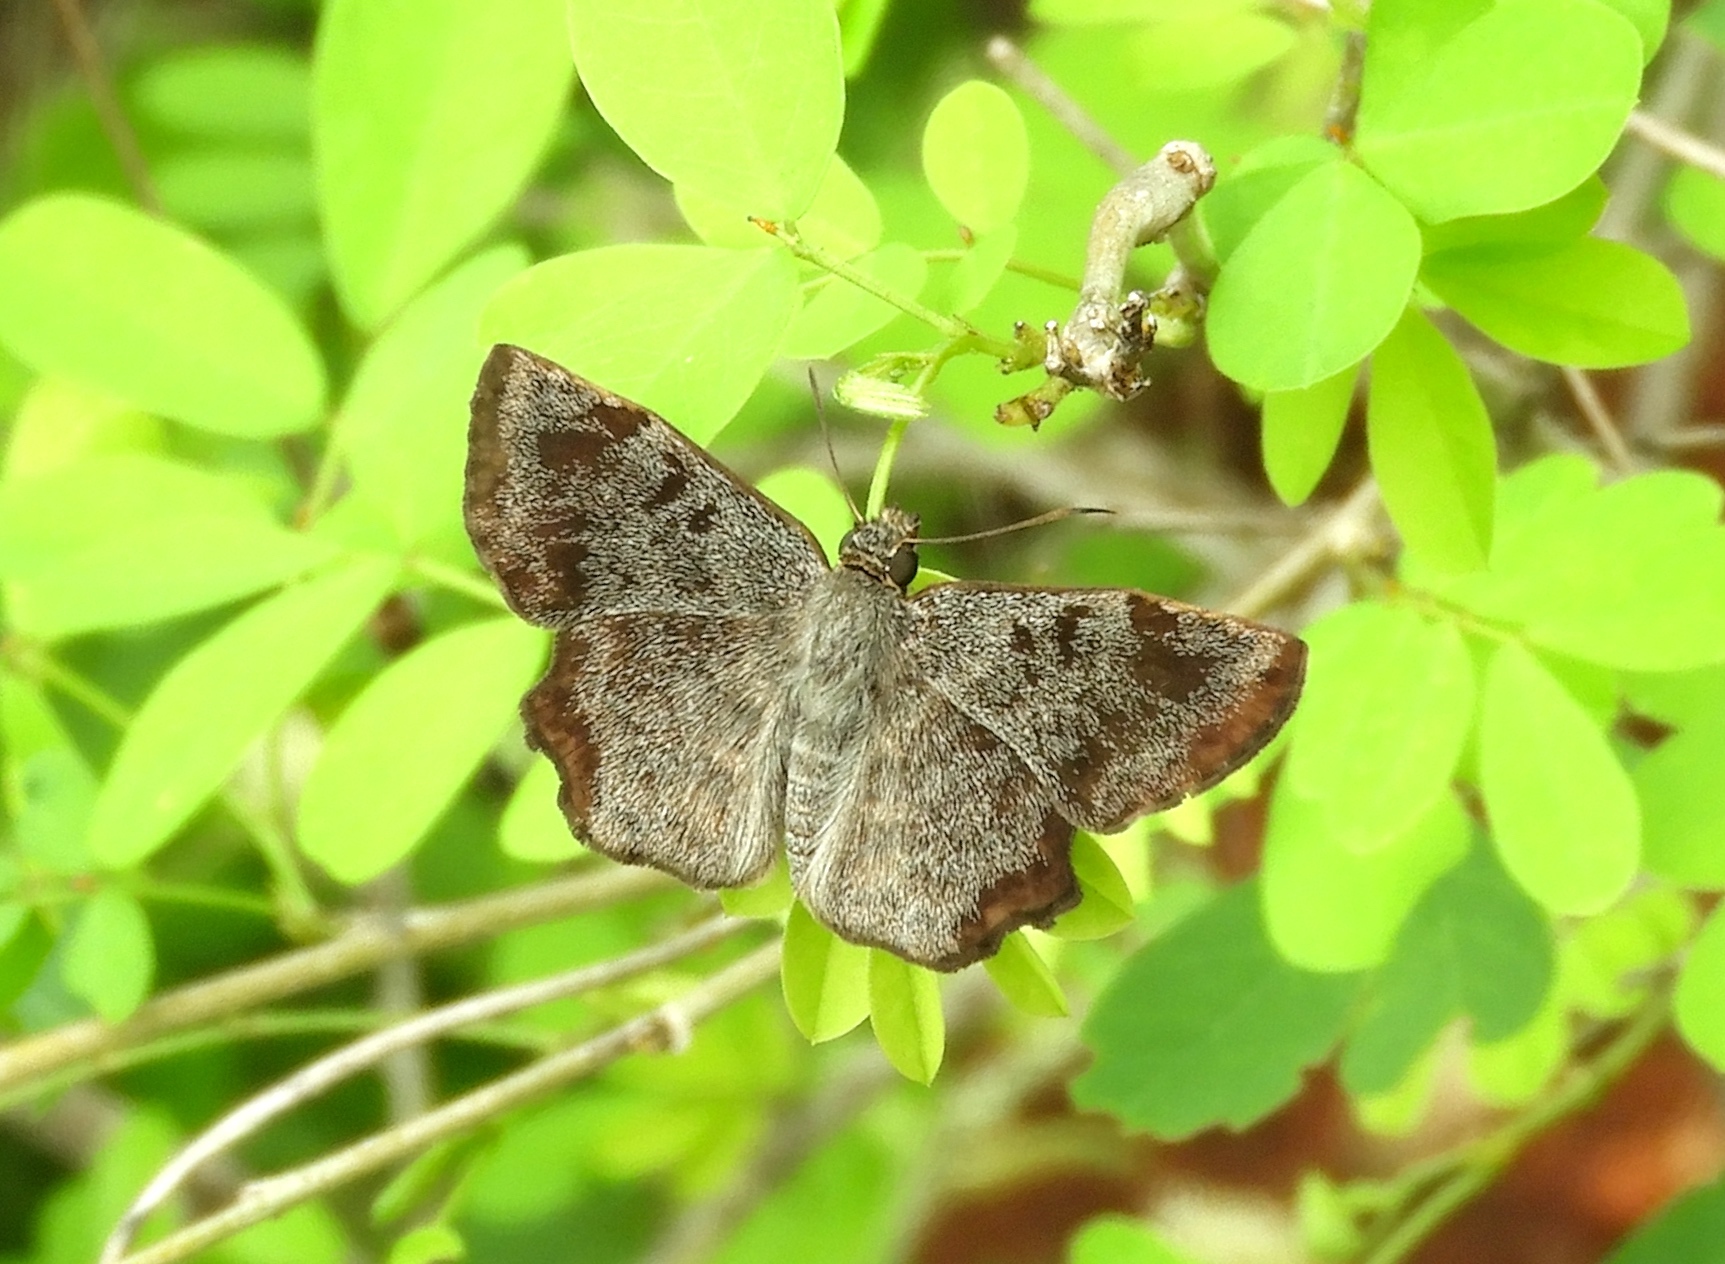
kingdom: Animalia
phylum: Arthropoda
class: Insecta
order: Lepidoptera
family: Hesperiidae
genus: Antigonus
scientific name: Antigonus erosus
